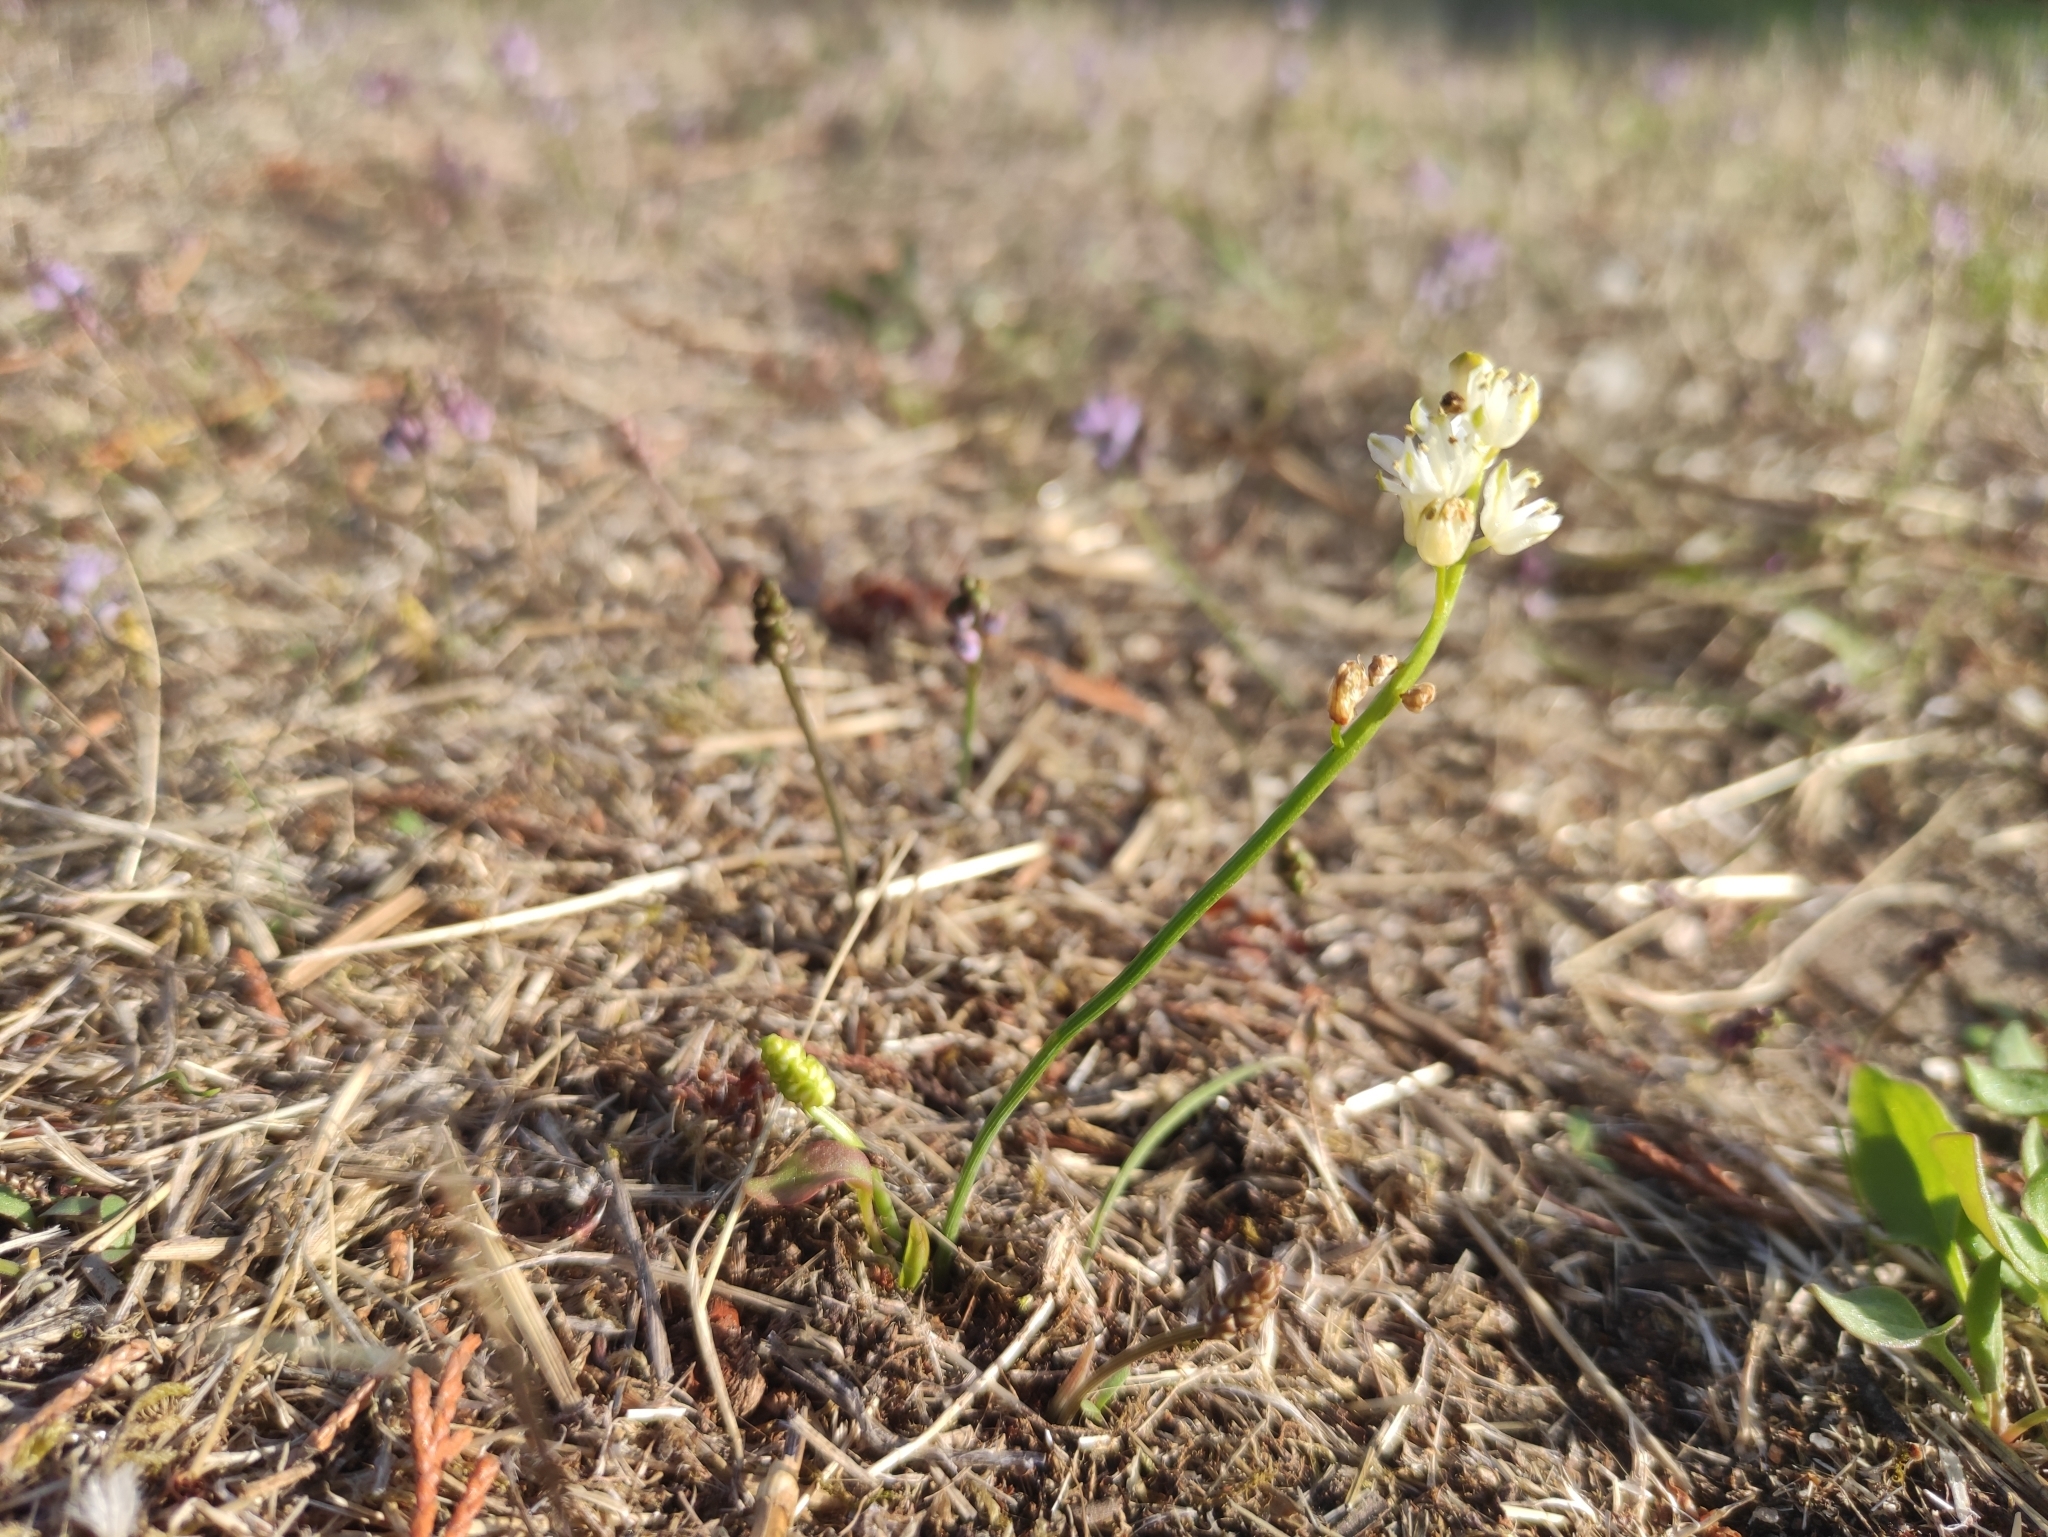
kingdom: Plantae
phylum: Tracheophyta
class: Liliopsida
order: Asparagales
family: Asparagaceae
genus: Prospero
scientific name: Prospero autumnale
